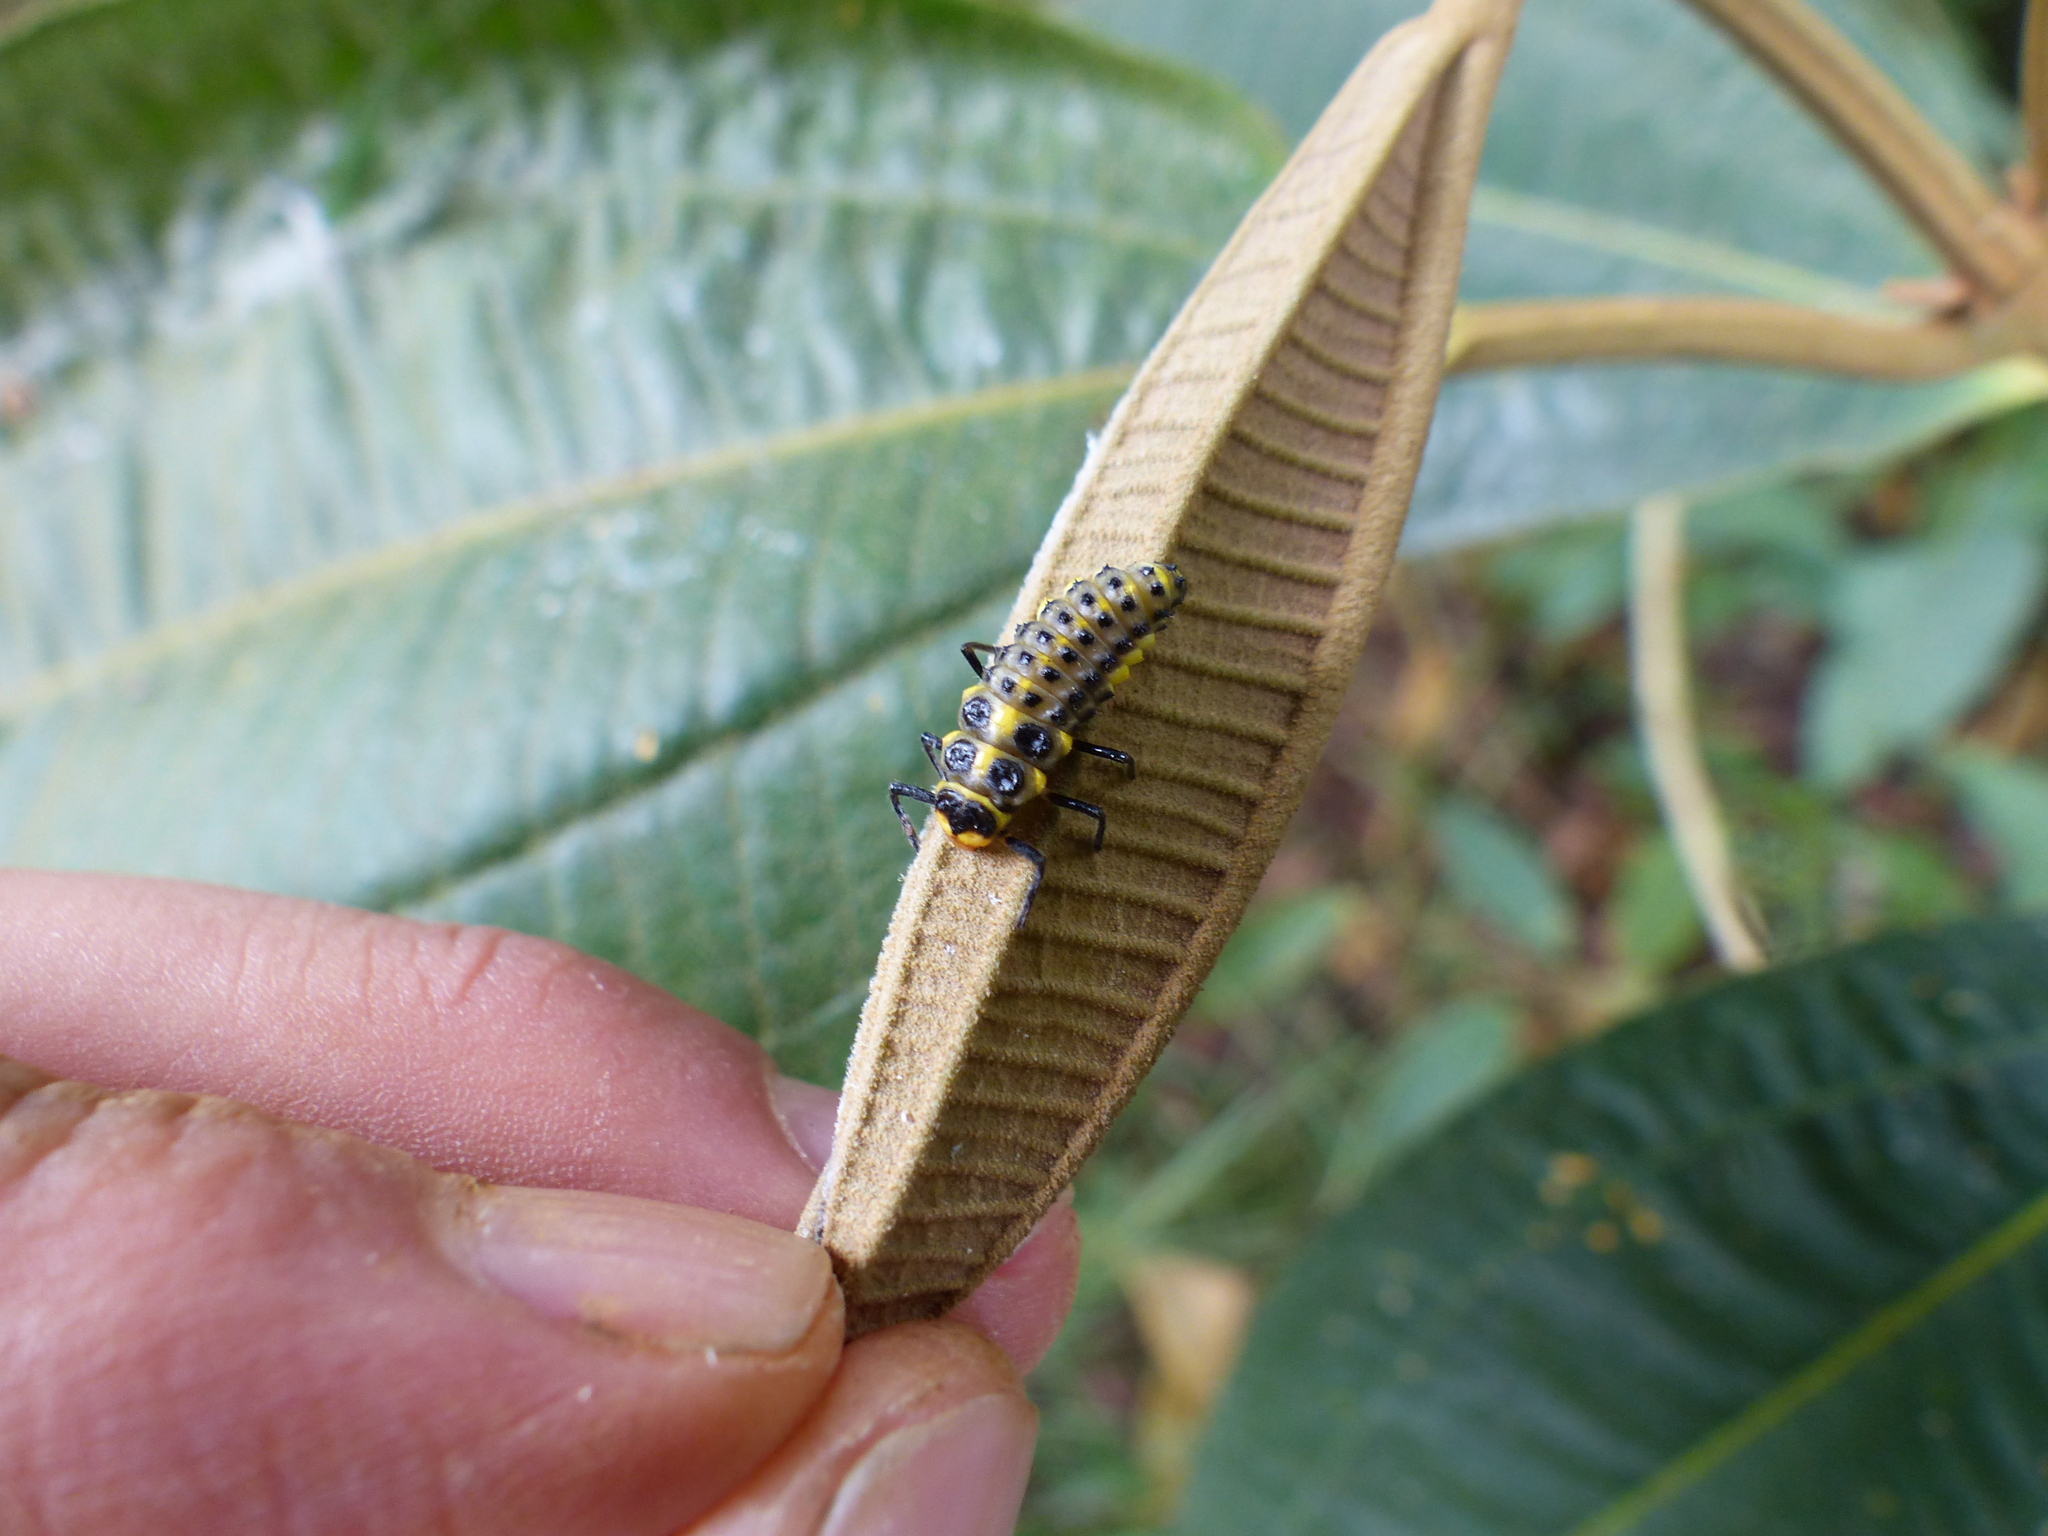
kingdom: Animalia
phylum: Arthropoda
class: Insecta
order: Coleoptera
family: Coccinellidae
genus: Neda
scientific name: Neda norrisi
